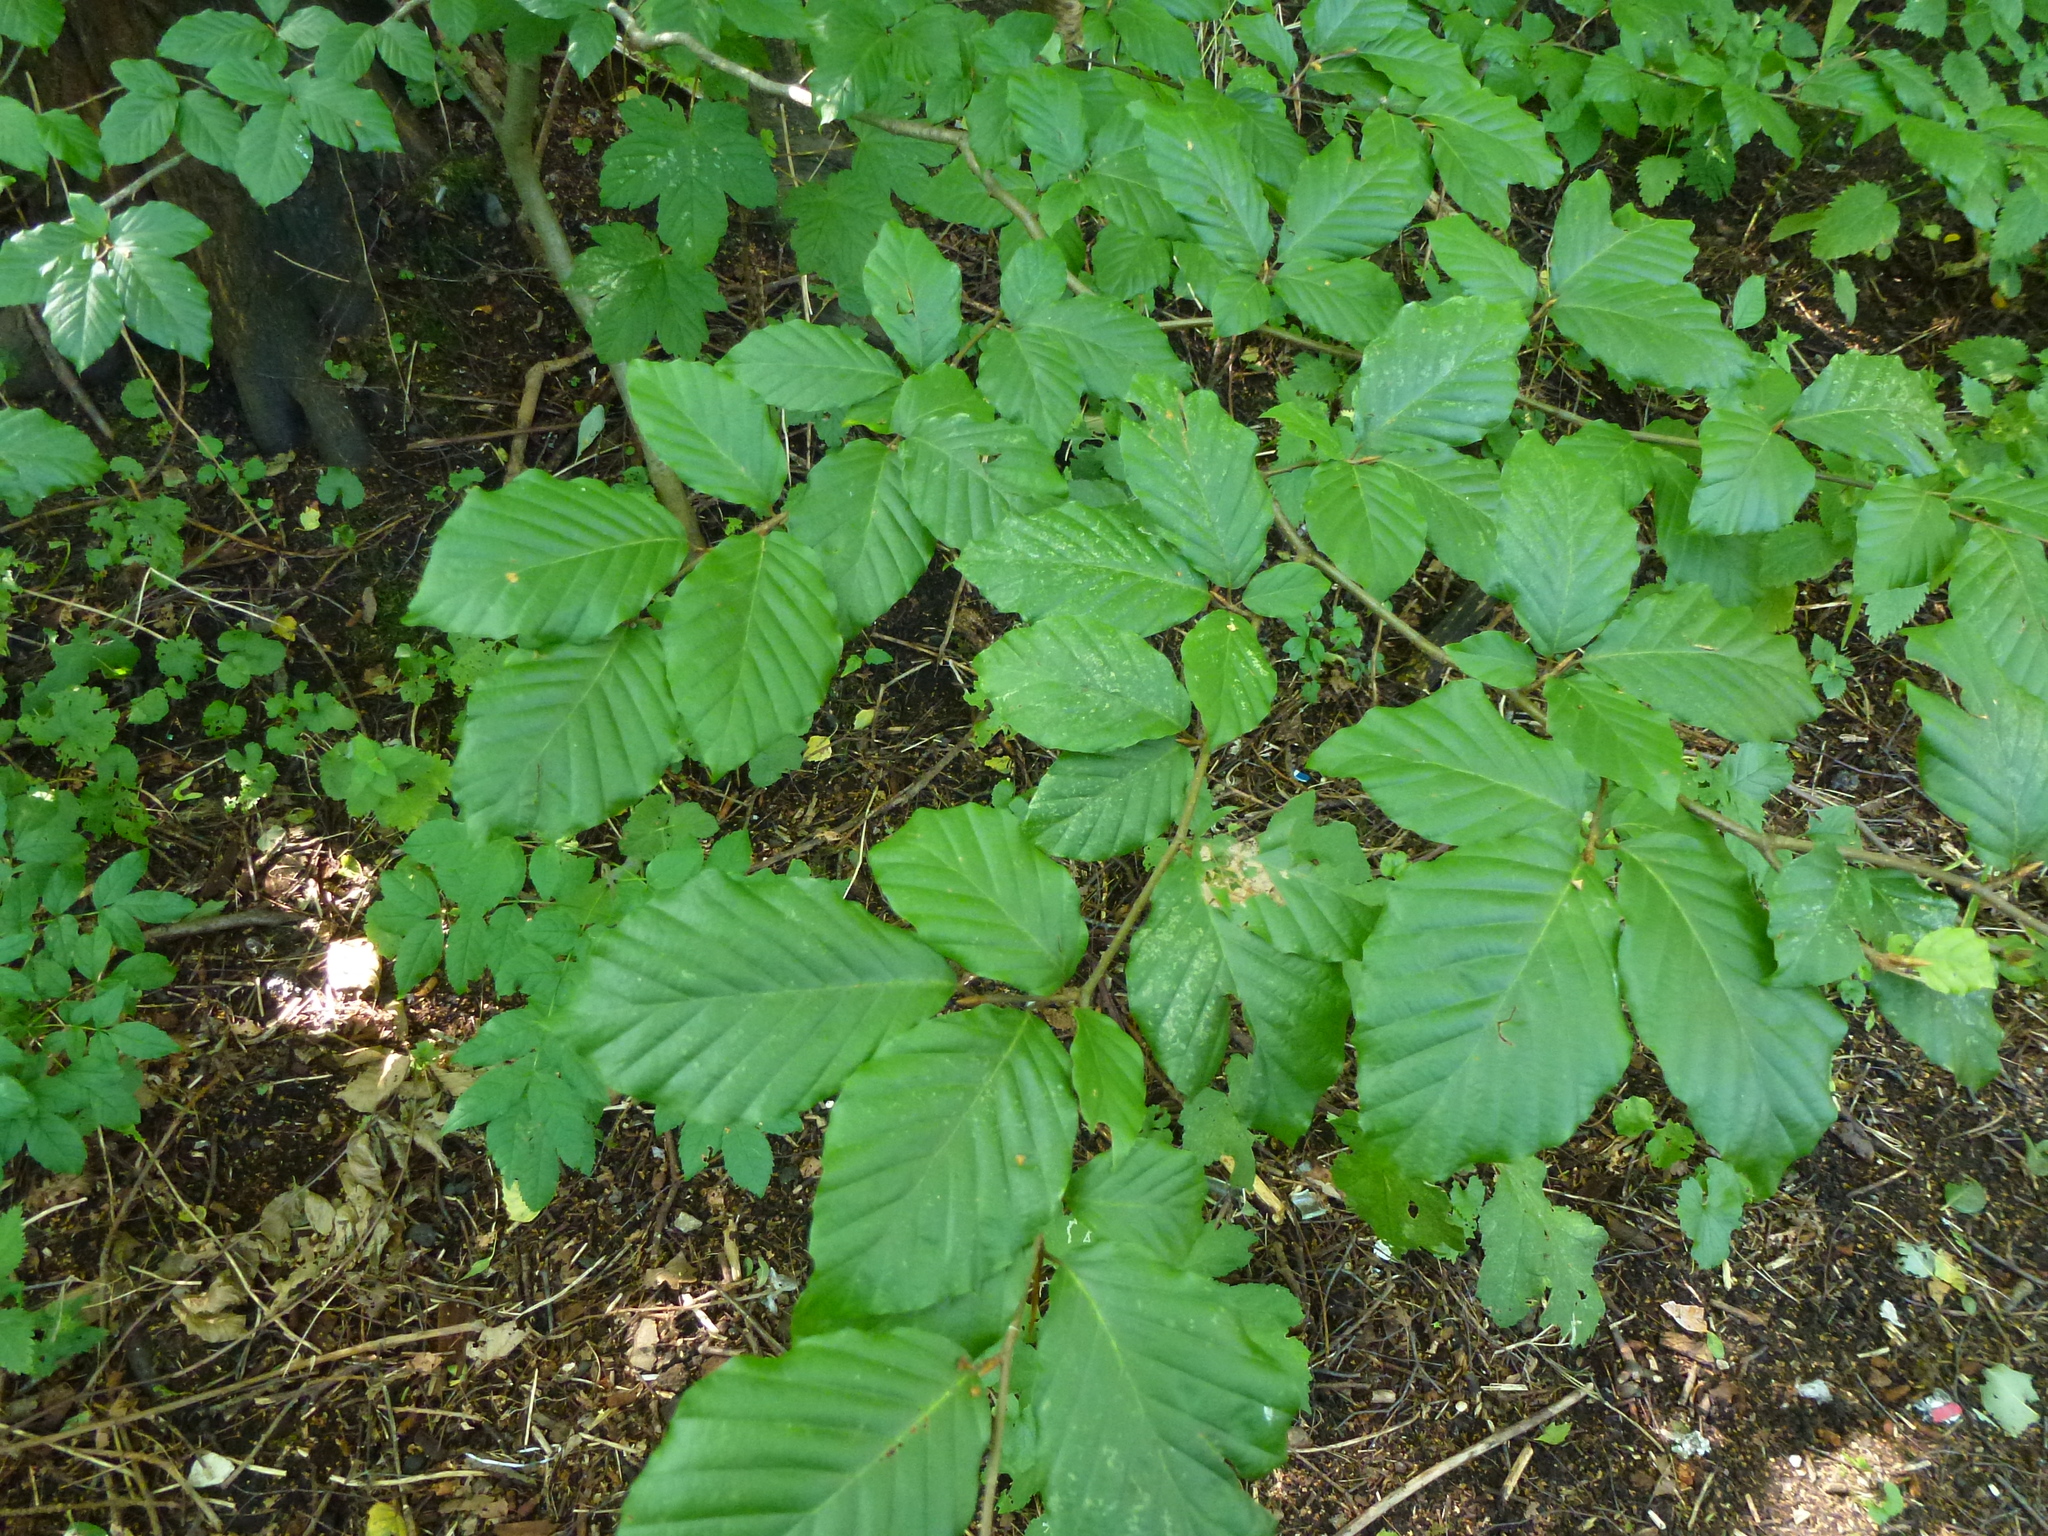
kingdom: Plantae
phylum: Tracheophyta
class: Magnoliopsida
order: Fagales
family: Fagaceae
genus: Fagus
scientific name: Fagus sylvatica
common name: Beech
